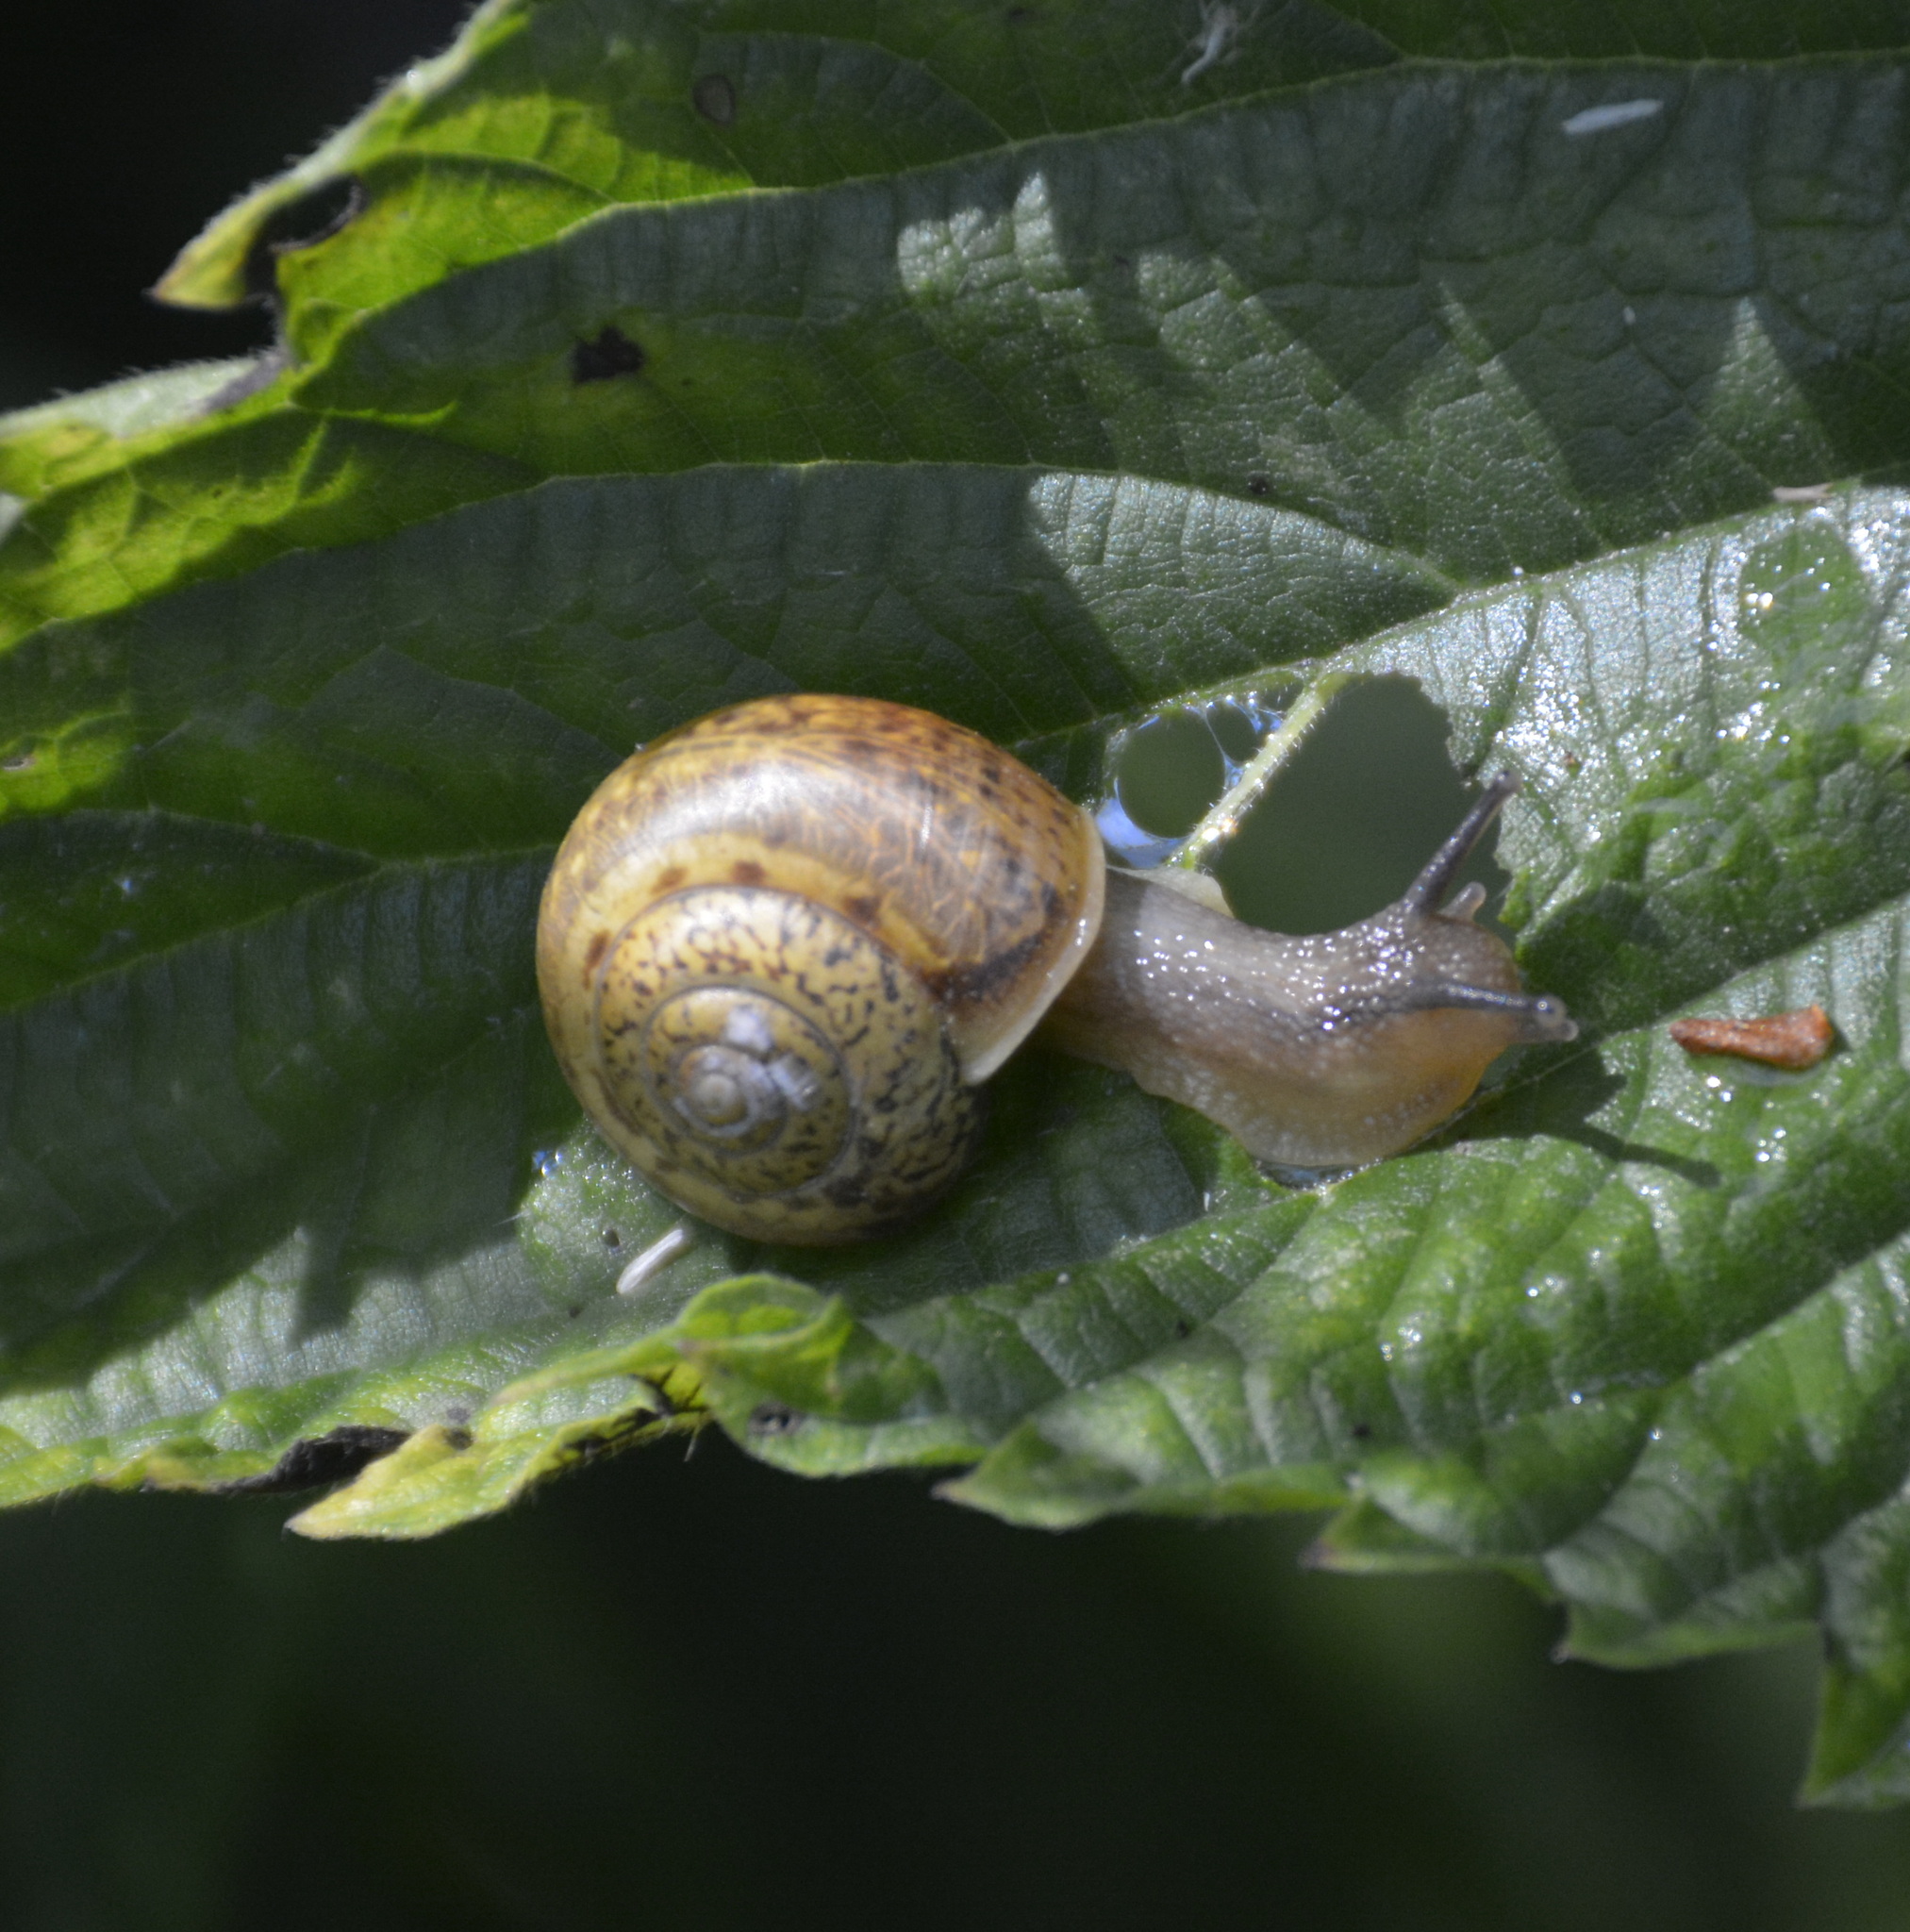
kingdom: Animalia
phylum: Mollusca
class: Gastropoda
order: Stylommatophora
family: Camaenidae
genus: Fruticicola
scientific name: Fruticicola fruticum
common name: Bush snail
